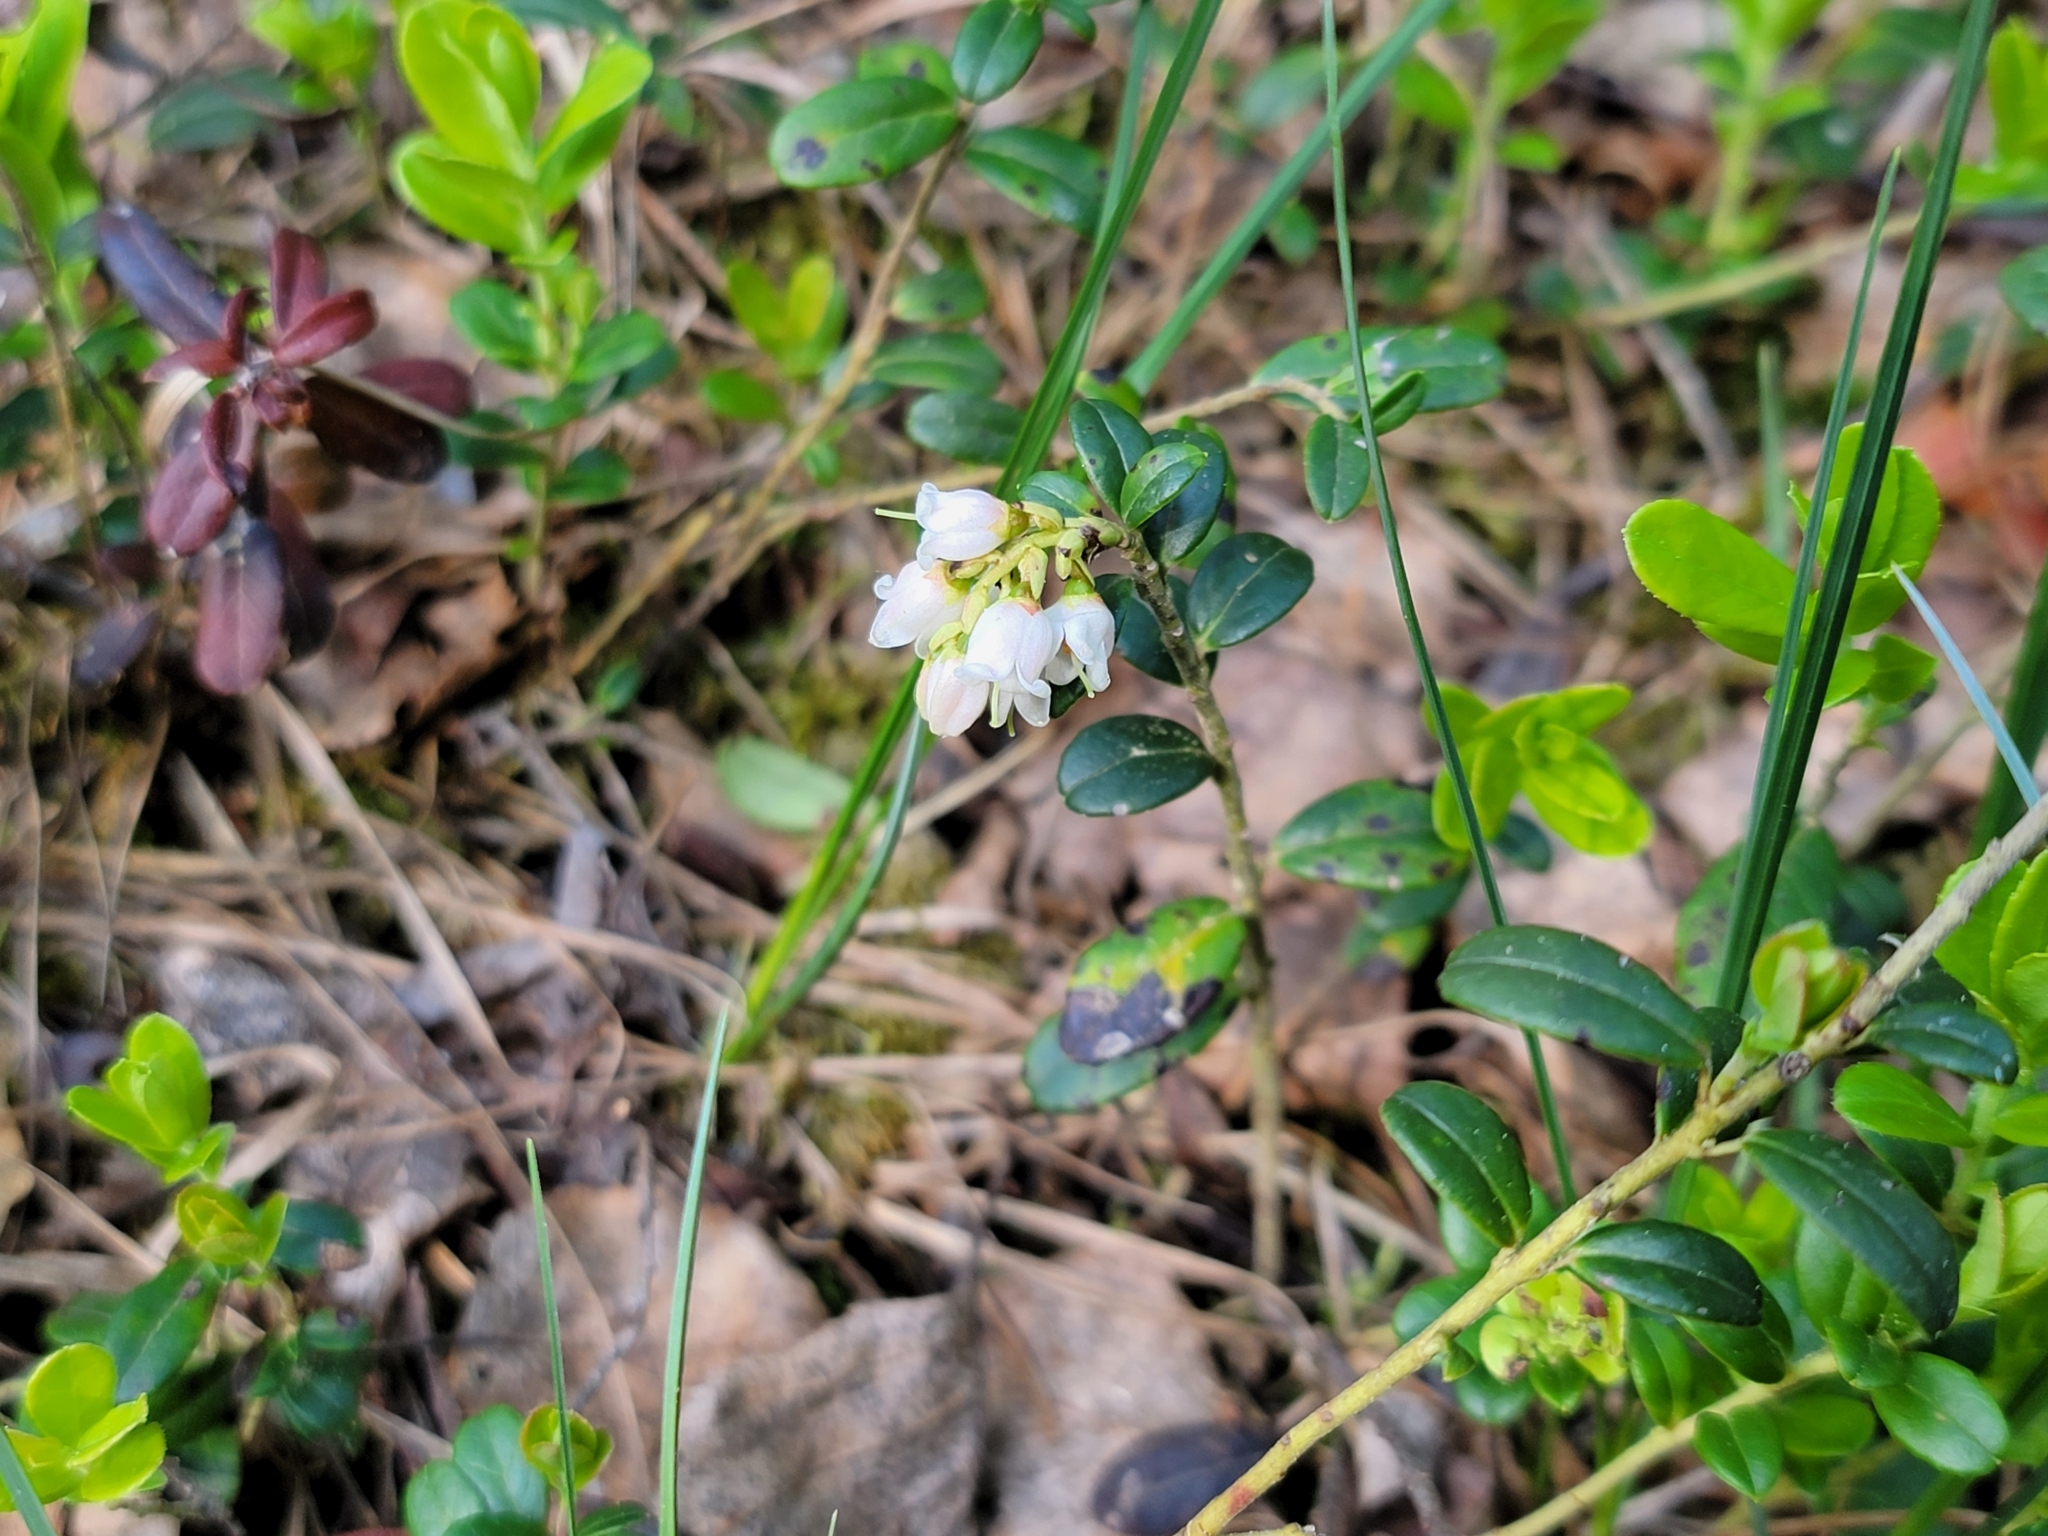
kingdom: Plantae
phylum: Tracheophyta
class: Magnoliopsida
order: Ericales
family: Ericaceae
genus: Vaccinium
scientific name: Vaccinium vitis-idaea
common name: Cowberry
